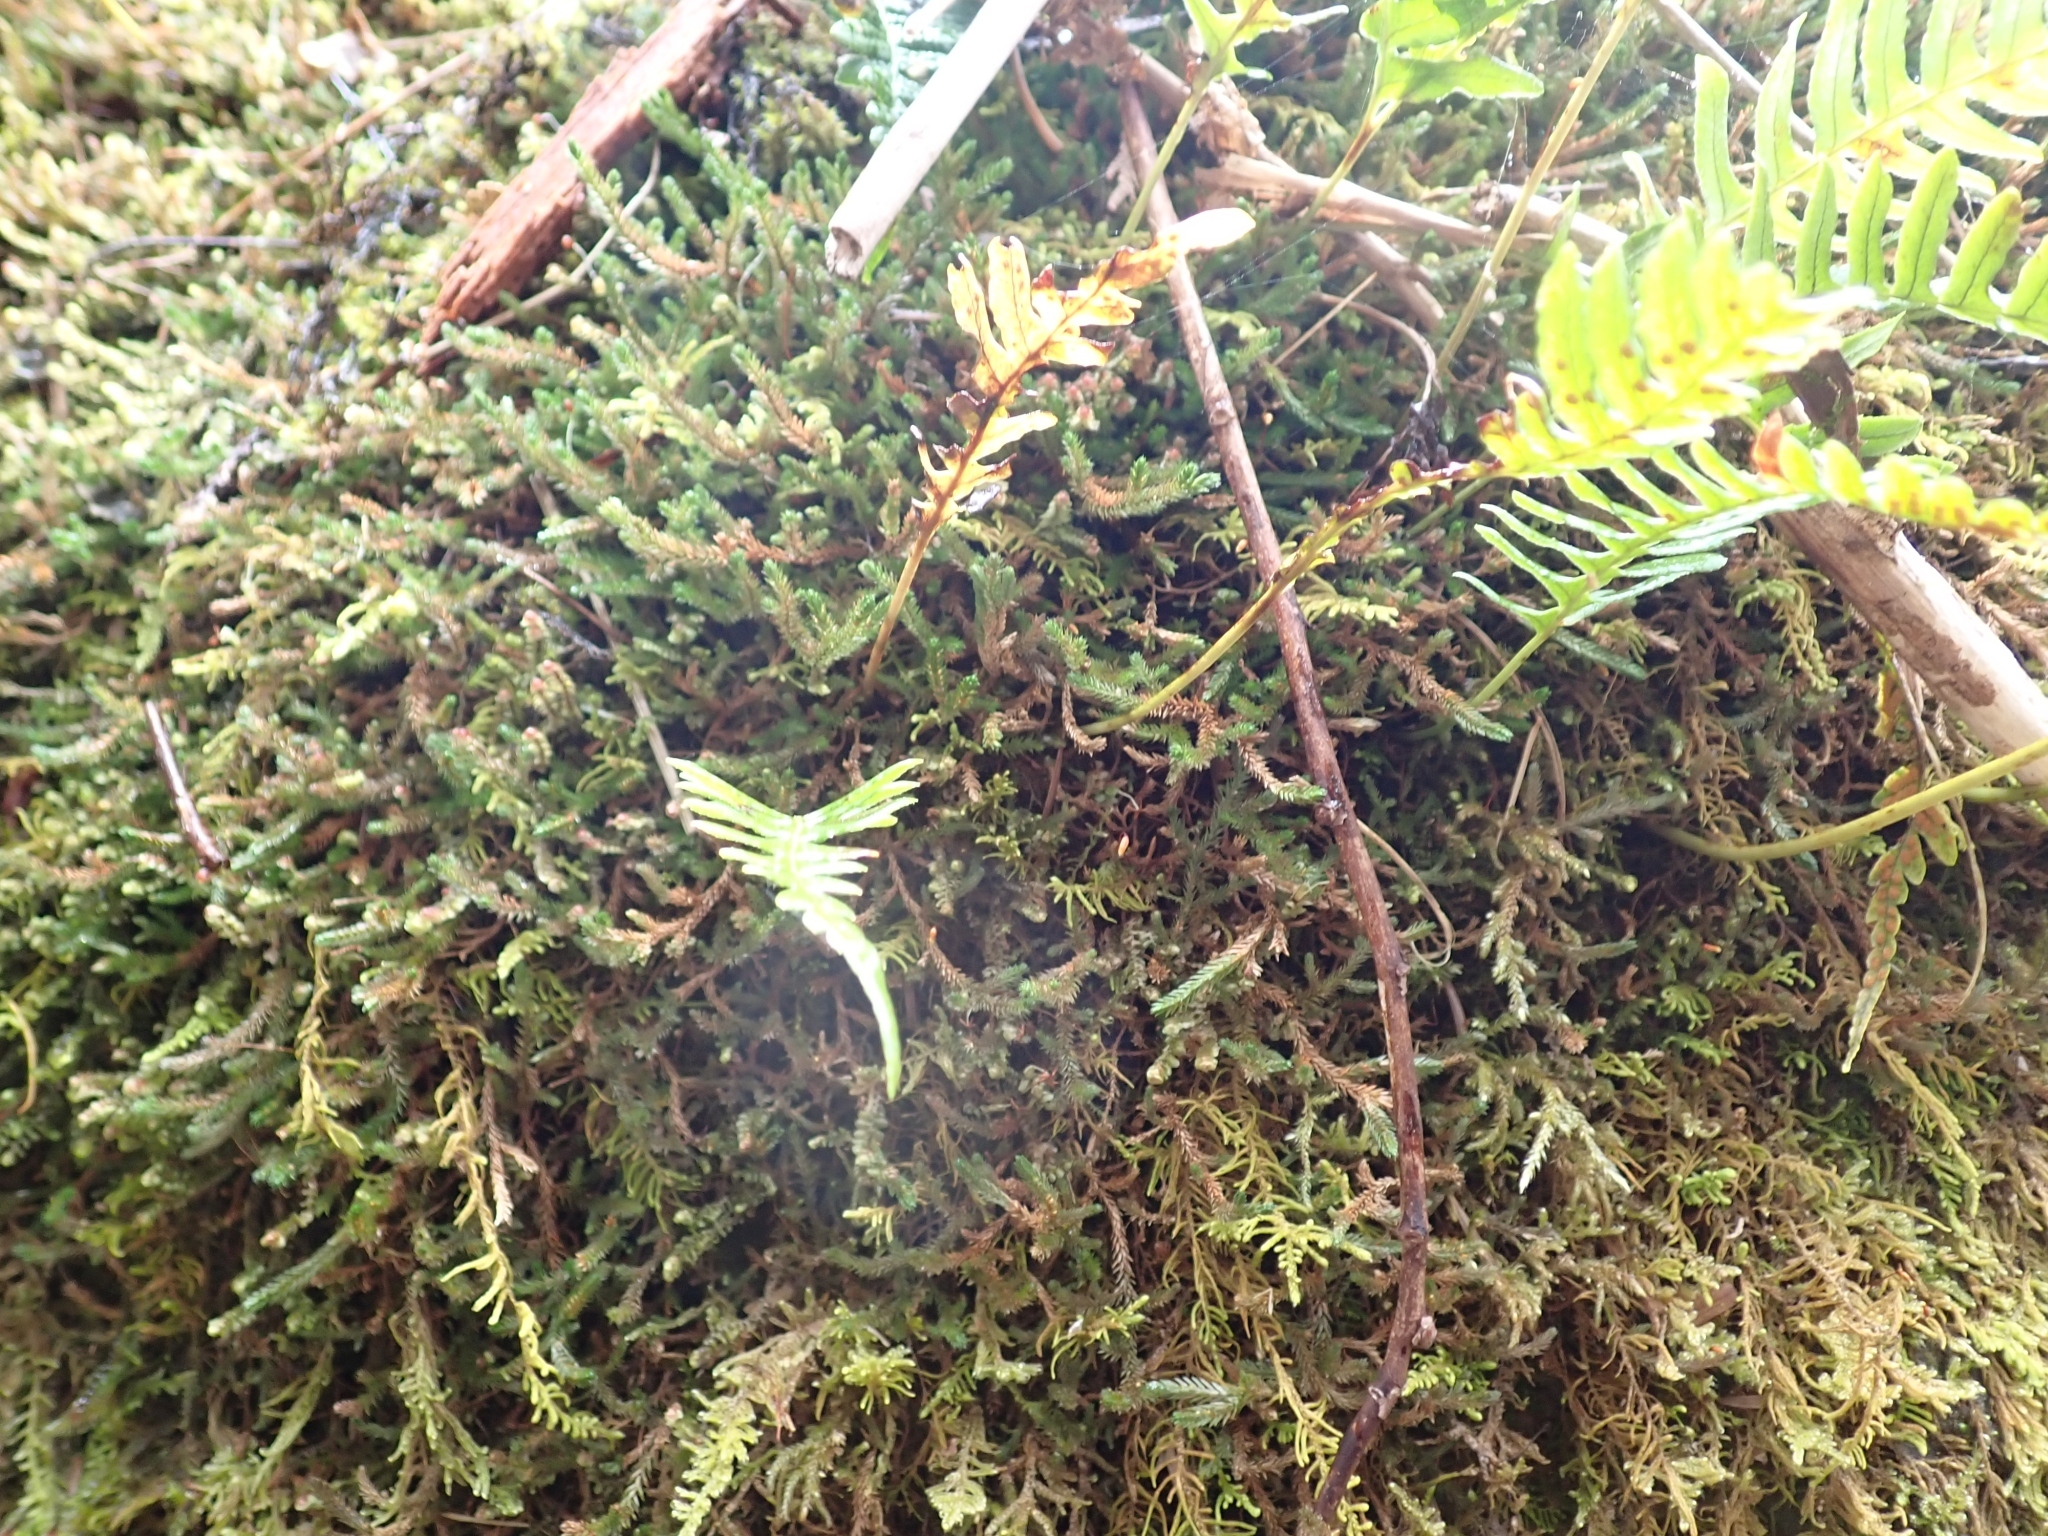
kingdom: Plantae
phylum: Tracheophyta
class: Lycopodiopsida
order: Selaginellales
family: Selaginellaceae
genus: Selaginella
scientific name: Selaginella wallacei
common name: Wallace's selaginella
